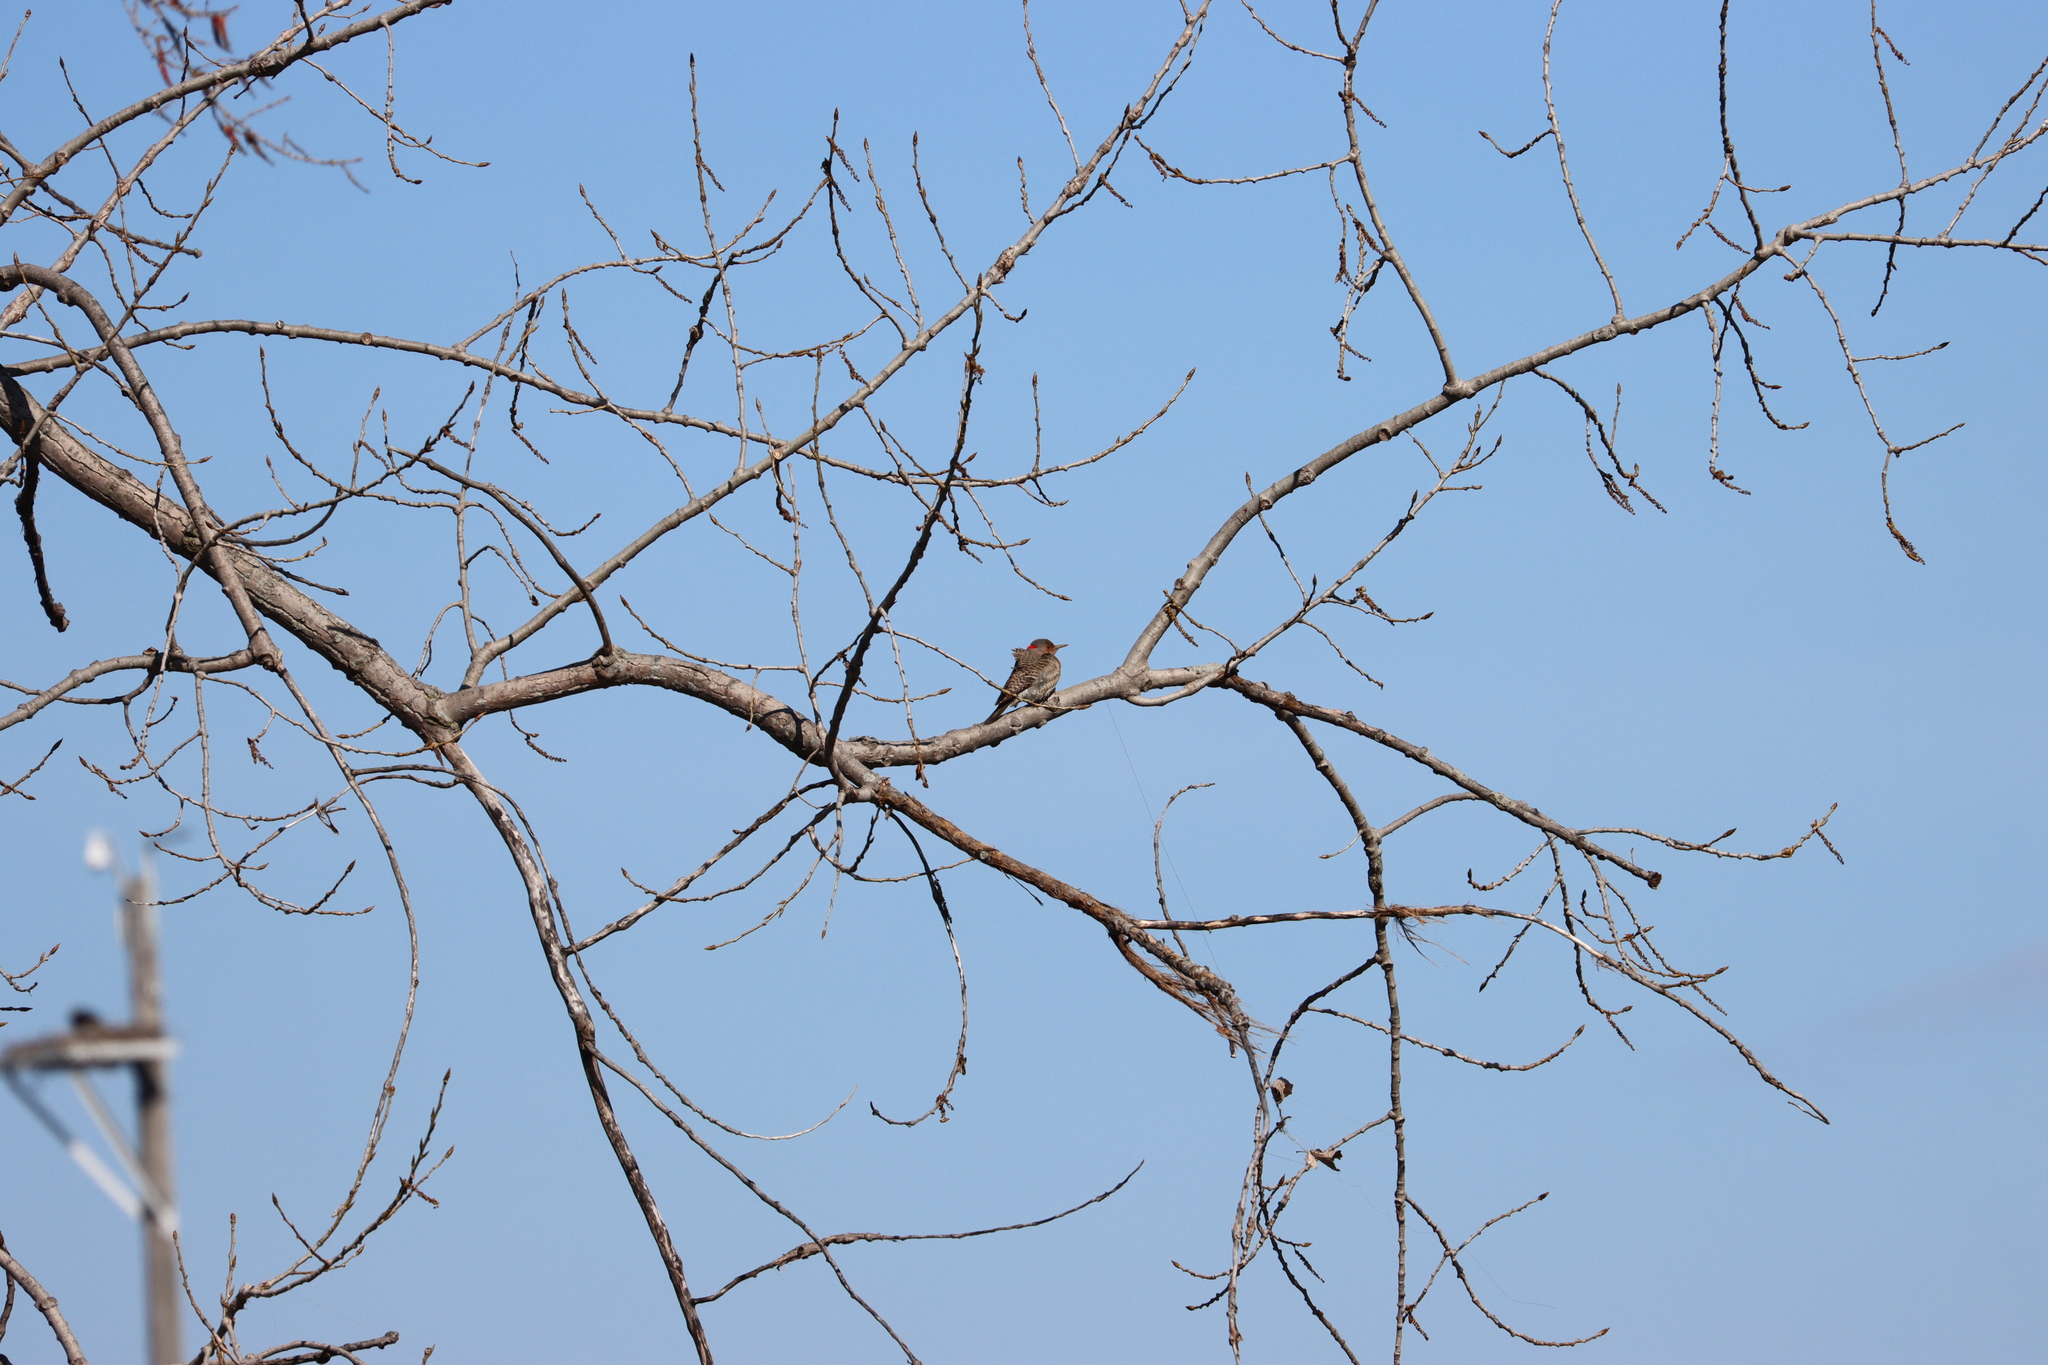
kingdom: Animalia
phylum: Chordata
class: Aves
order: Piciformes
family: Picidae
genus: Colaptes
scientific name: Colaptes auratus
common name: Northern flicker
